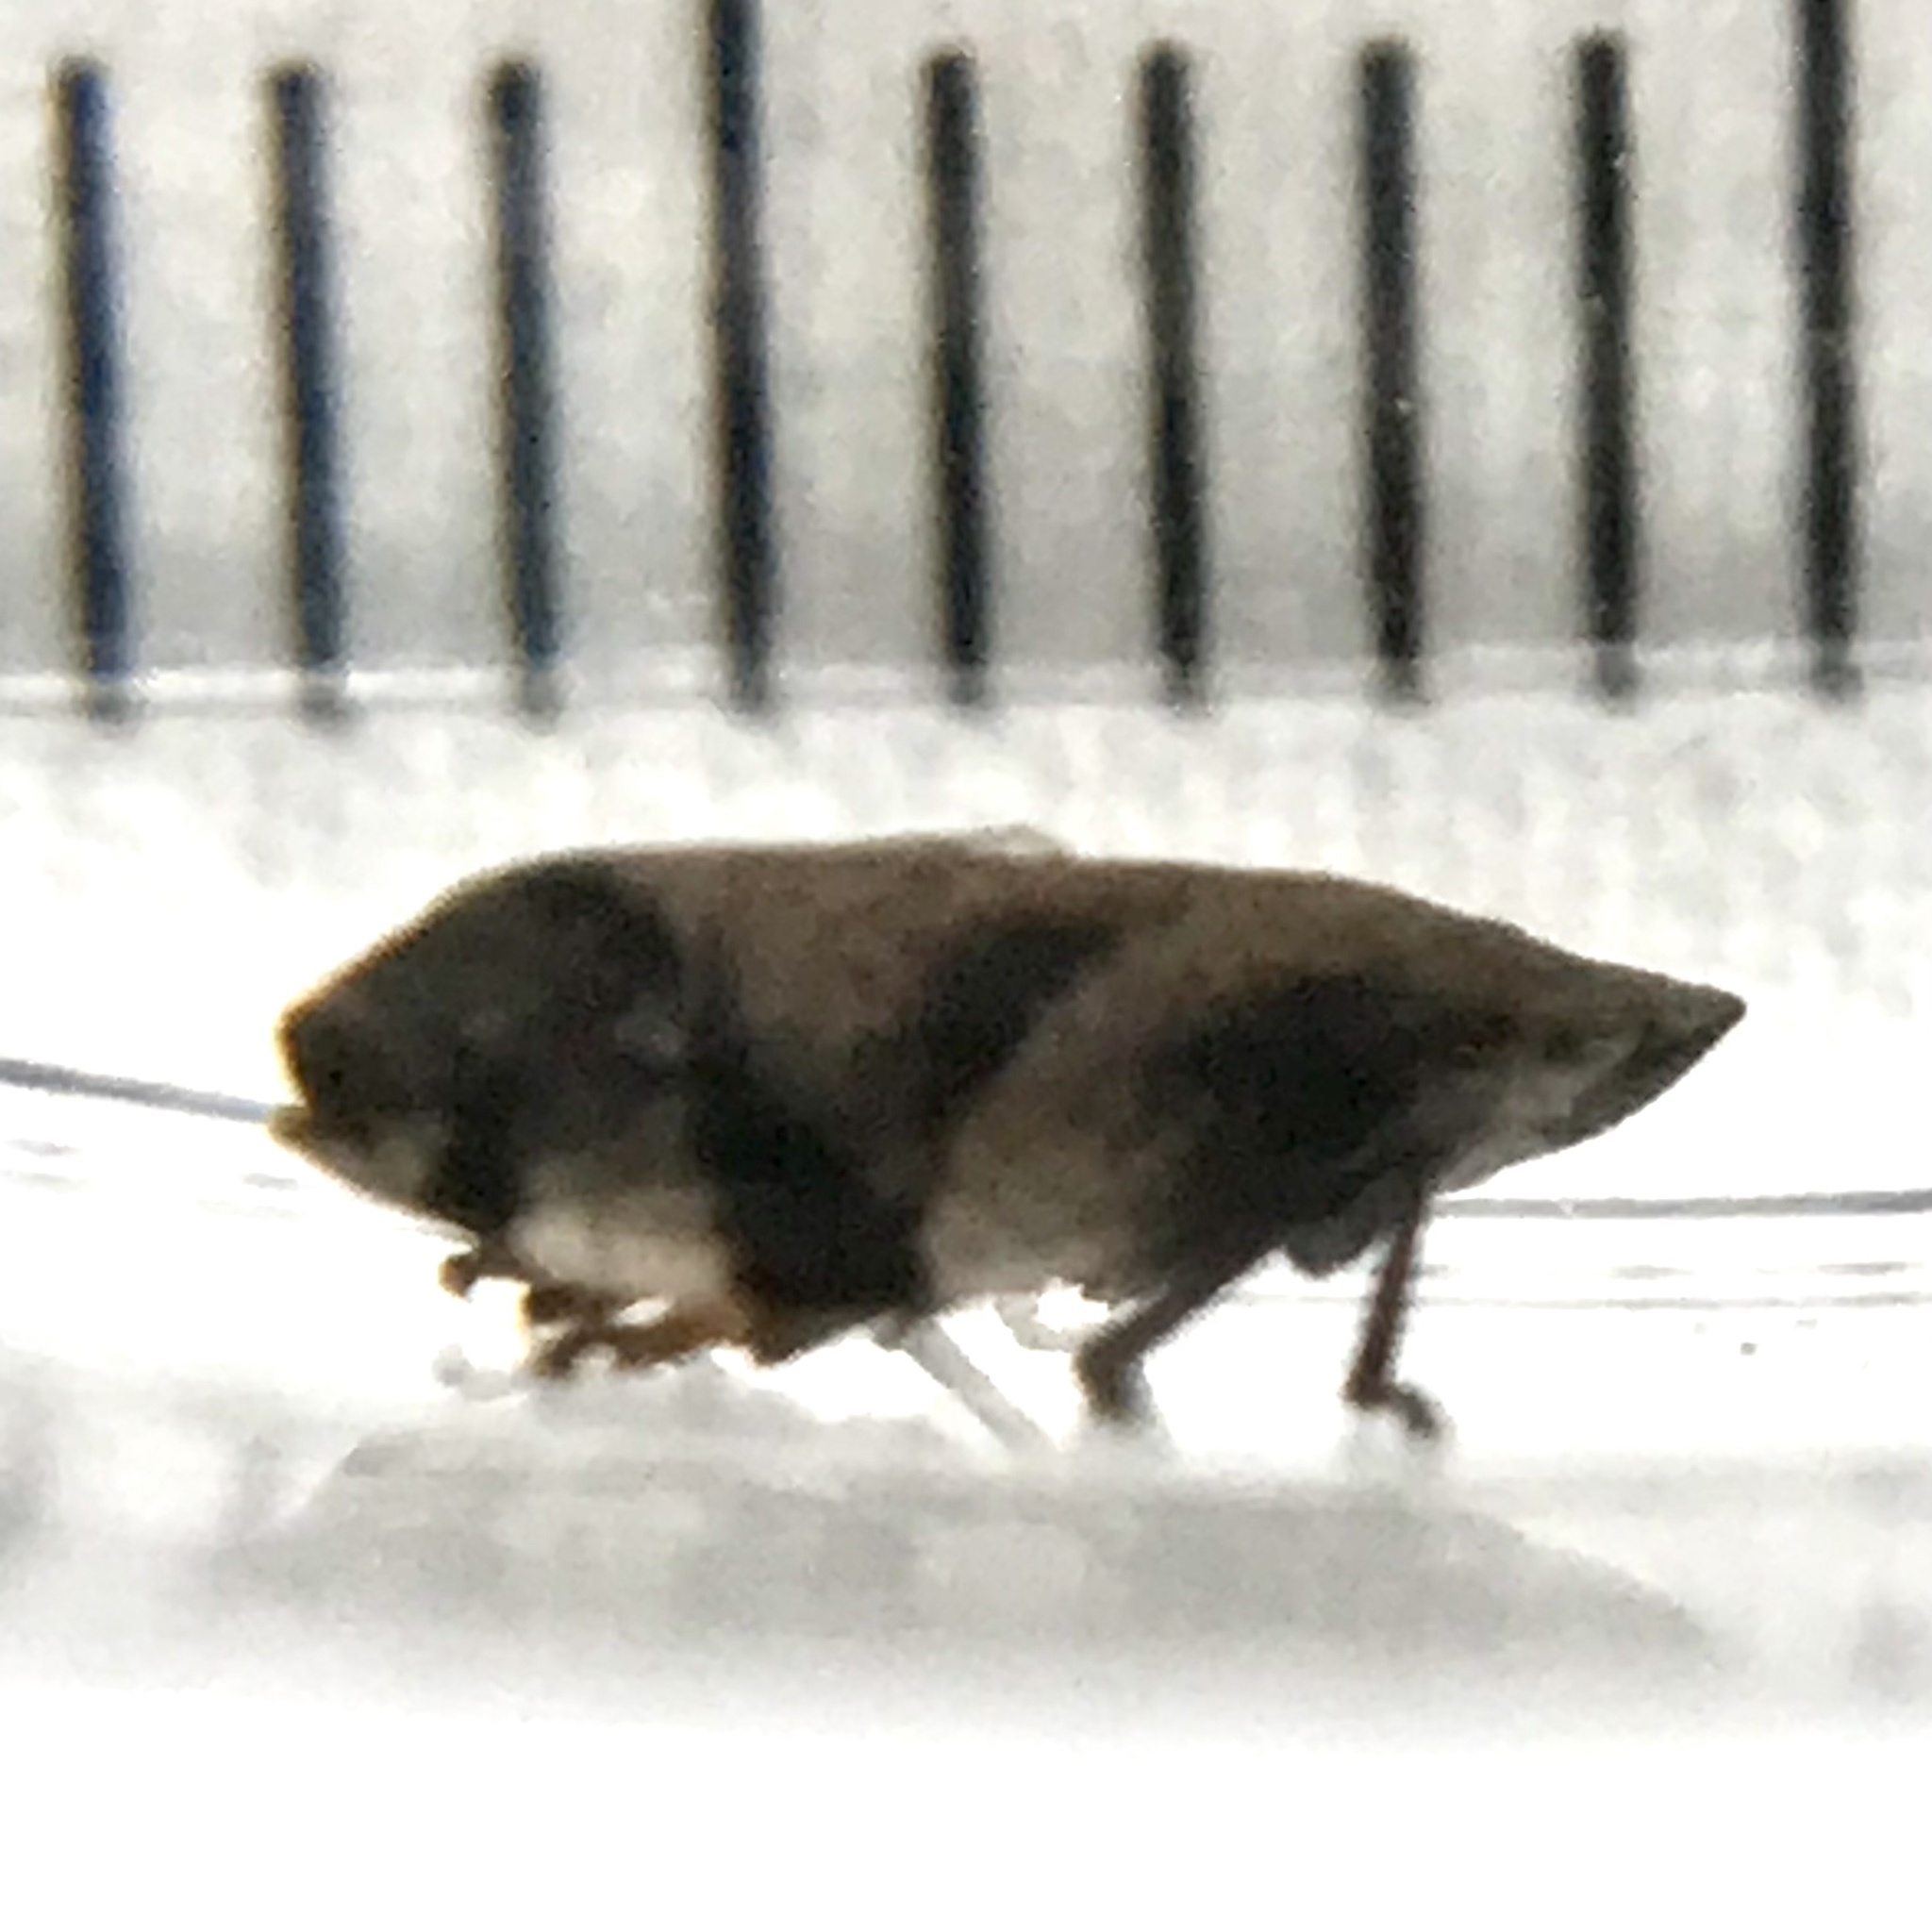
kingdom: Animalia
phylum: Arthropoda
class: Insecta
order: Hemiptera
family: Aphrophoridae
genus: Lepyronia
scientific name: Lepyronia quadrangularis
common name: Diamond-backed spittlebug
